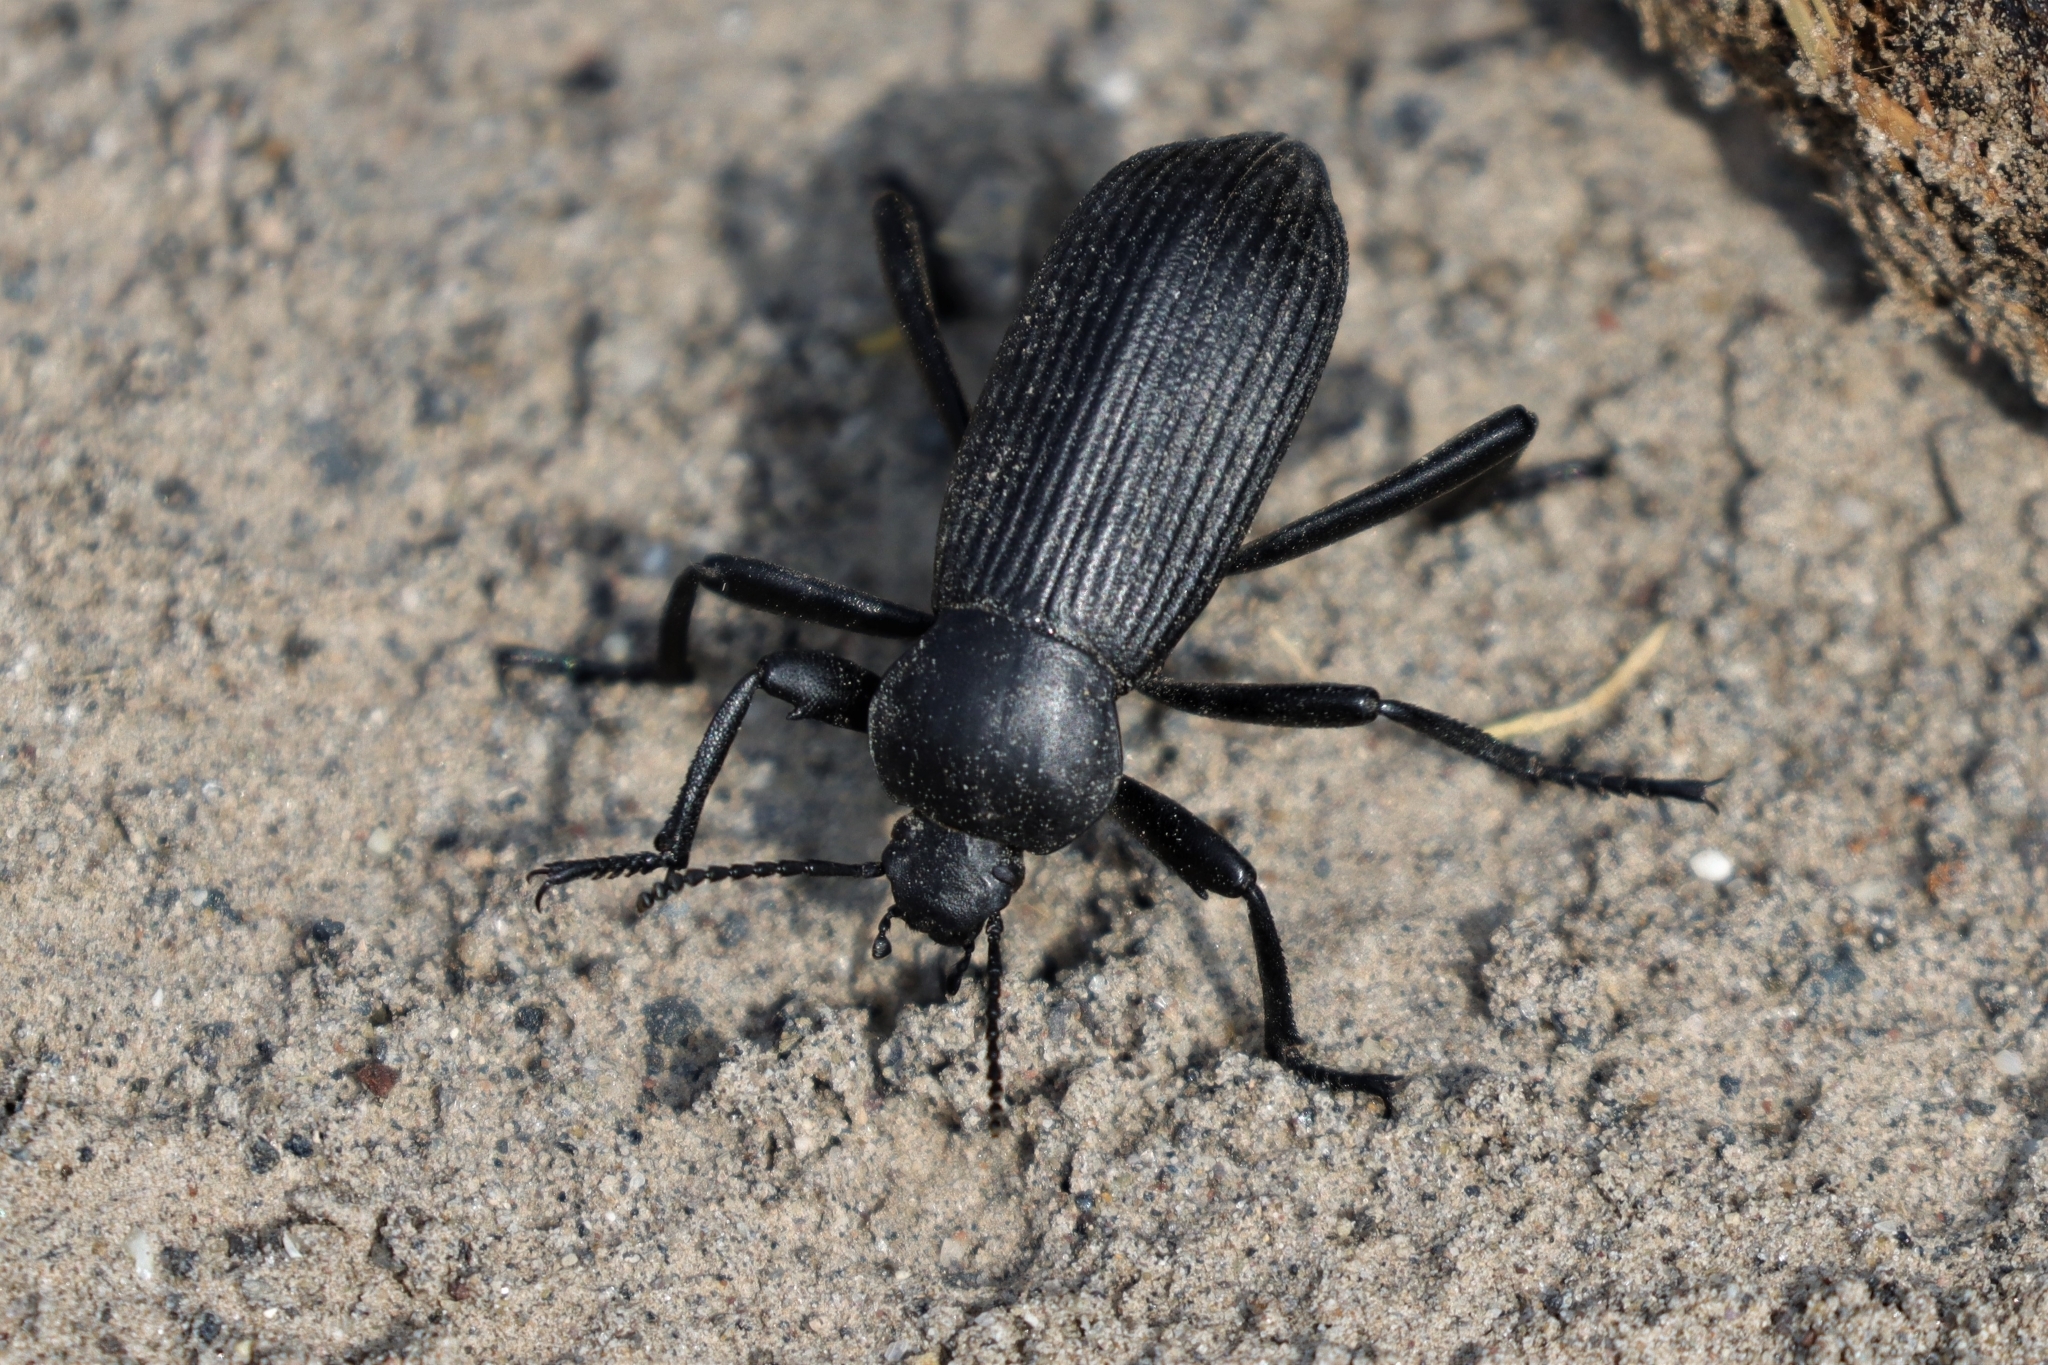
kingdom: Animalia
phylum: Arthropoda
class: Insecta
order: Coleoptera
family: Tenebrionidae
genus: Eleodes
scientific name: Eleodes obscura
